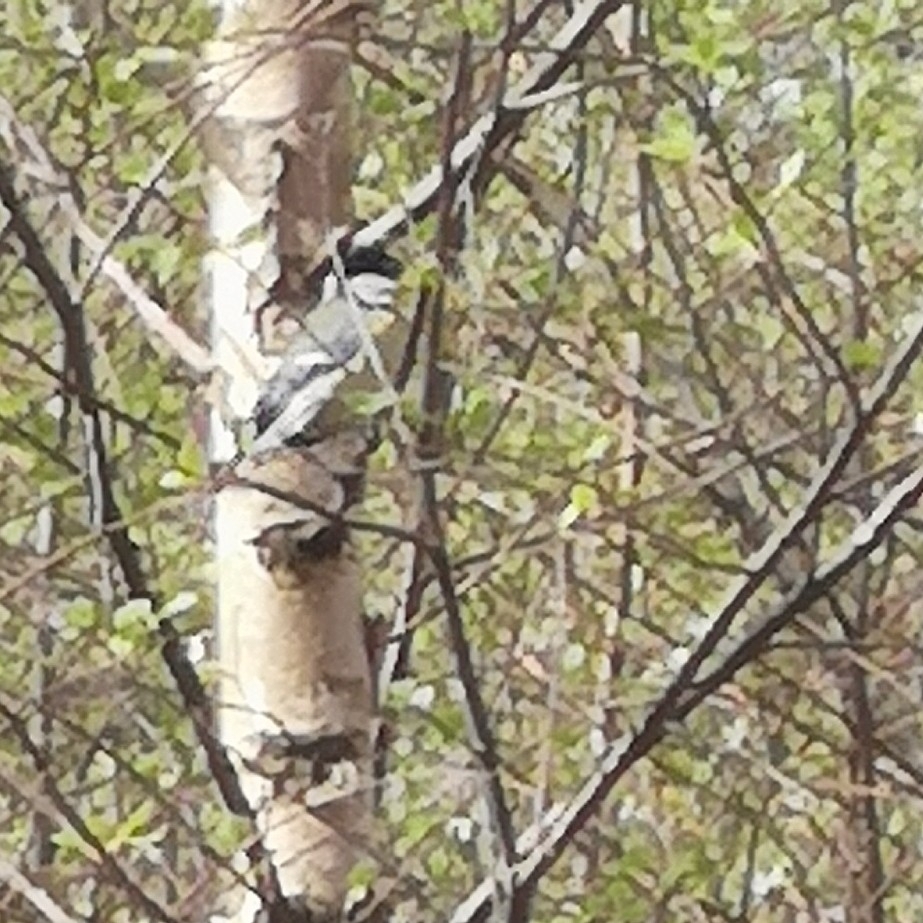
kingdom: Animalia
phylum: Chordata
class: Aves
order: Passeriformes
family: Paridae
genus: Parus
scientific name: Parus major
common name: Great tit
